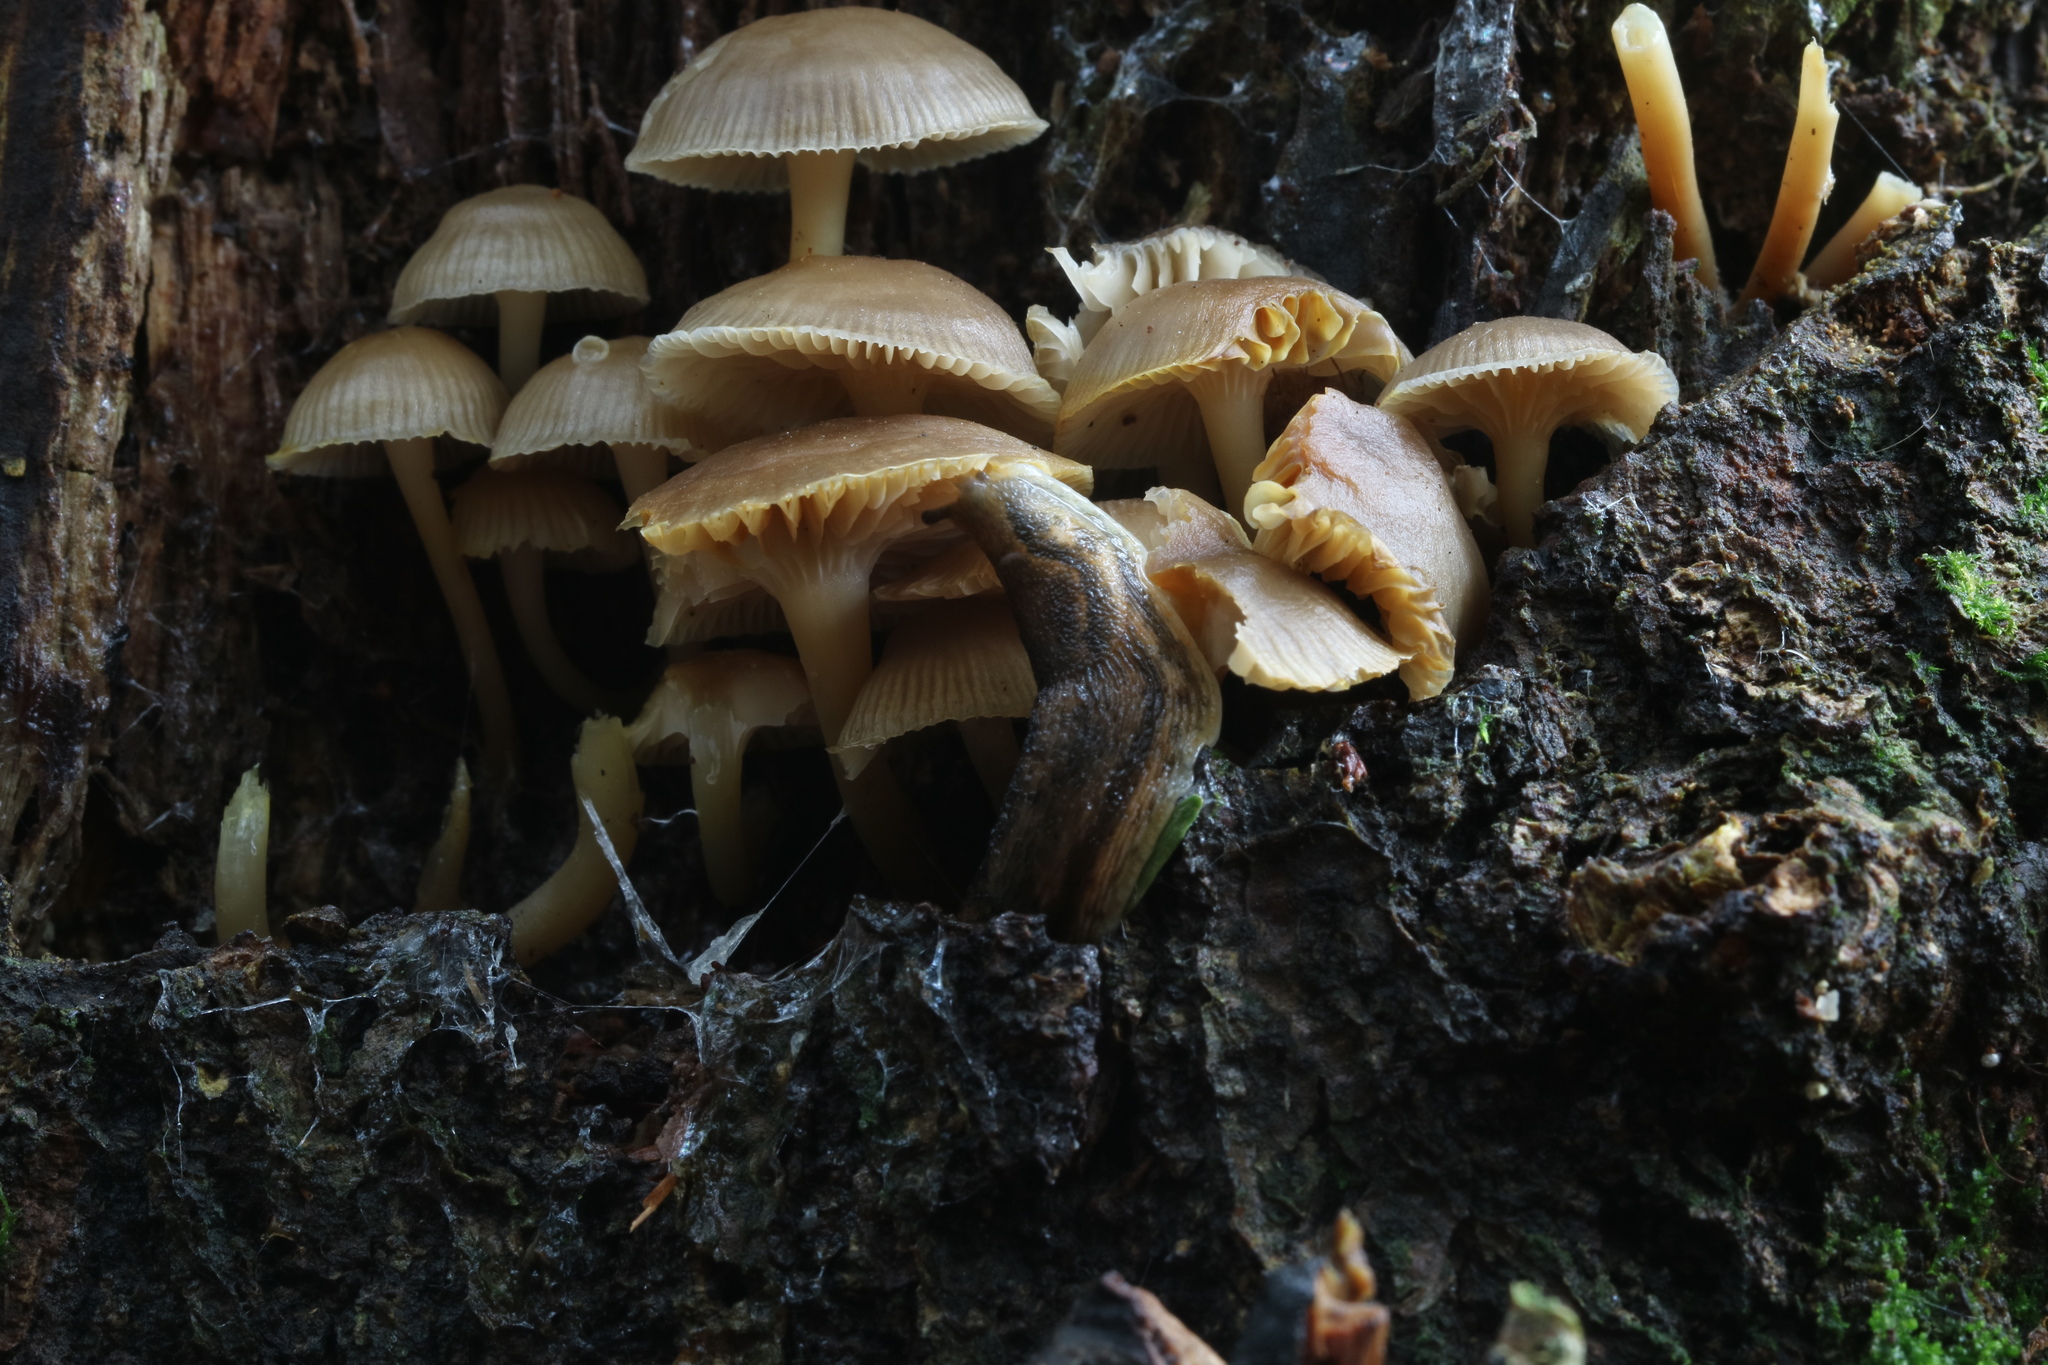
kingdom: Animalia
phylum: Mollusca
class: Gastropoda
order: Stylommatophora
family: Arionidae
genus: Arion
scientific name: Arion subfuscus
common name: Dusky arion
